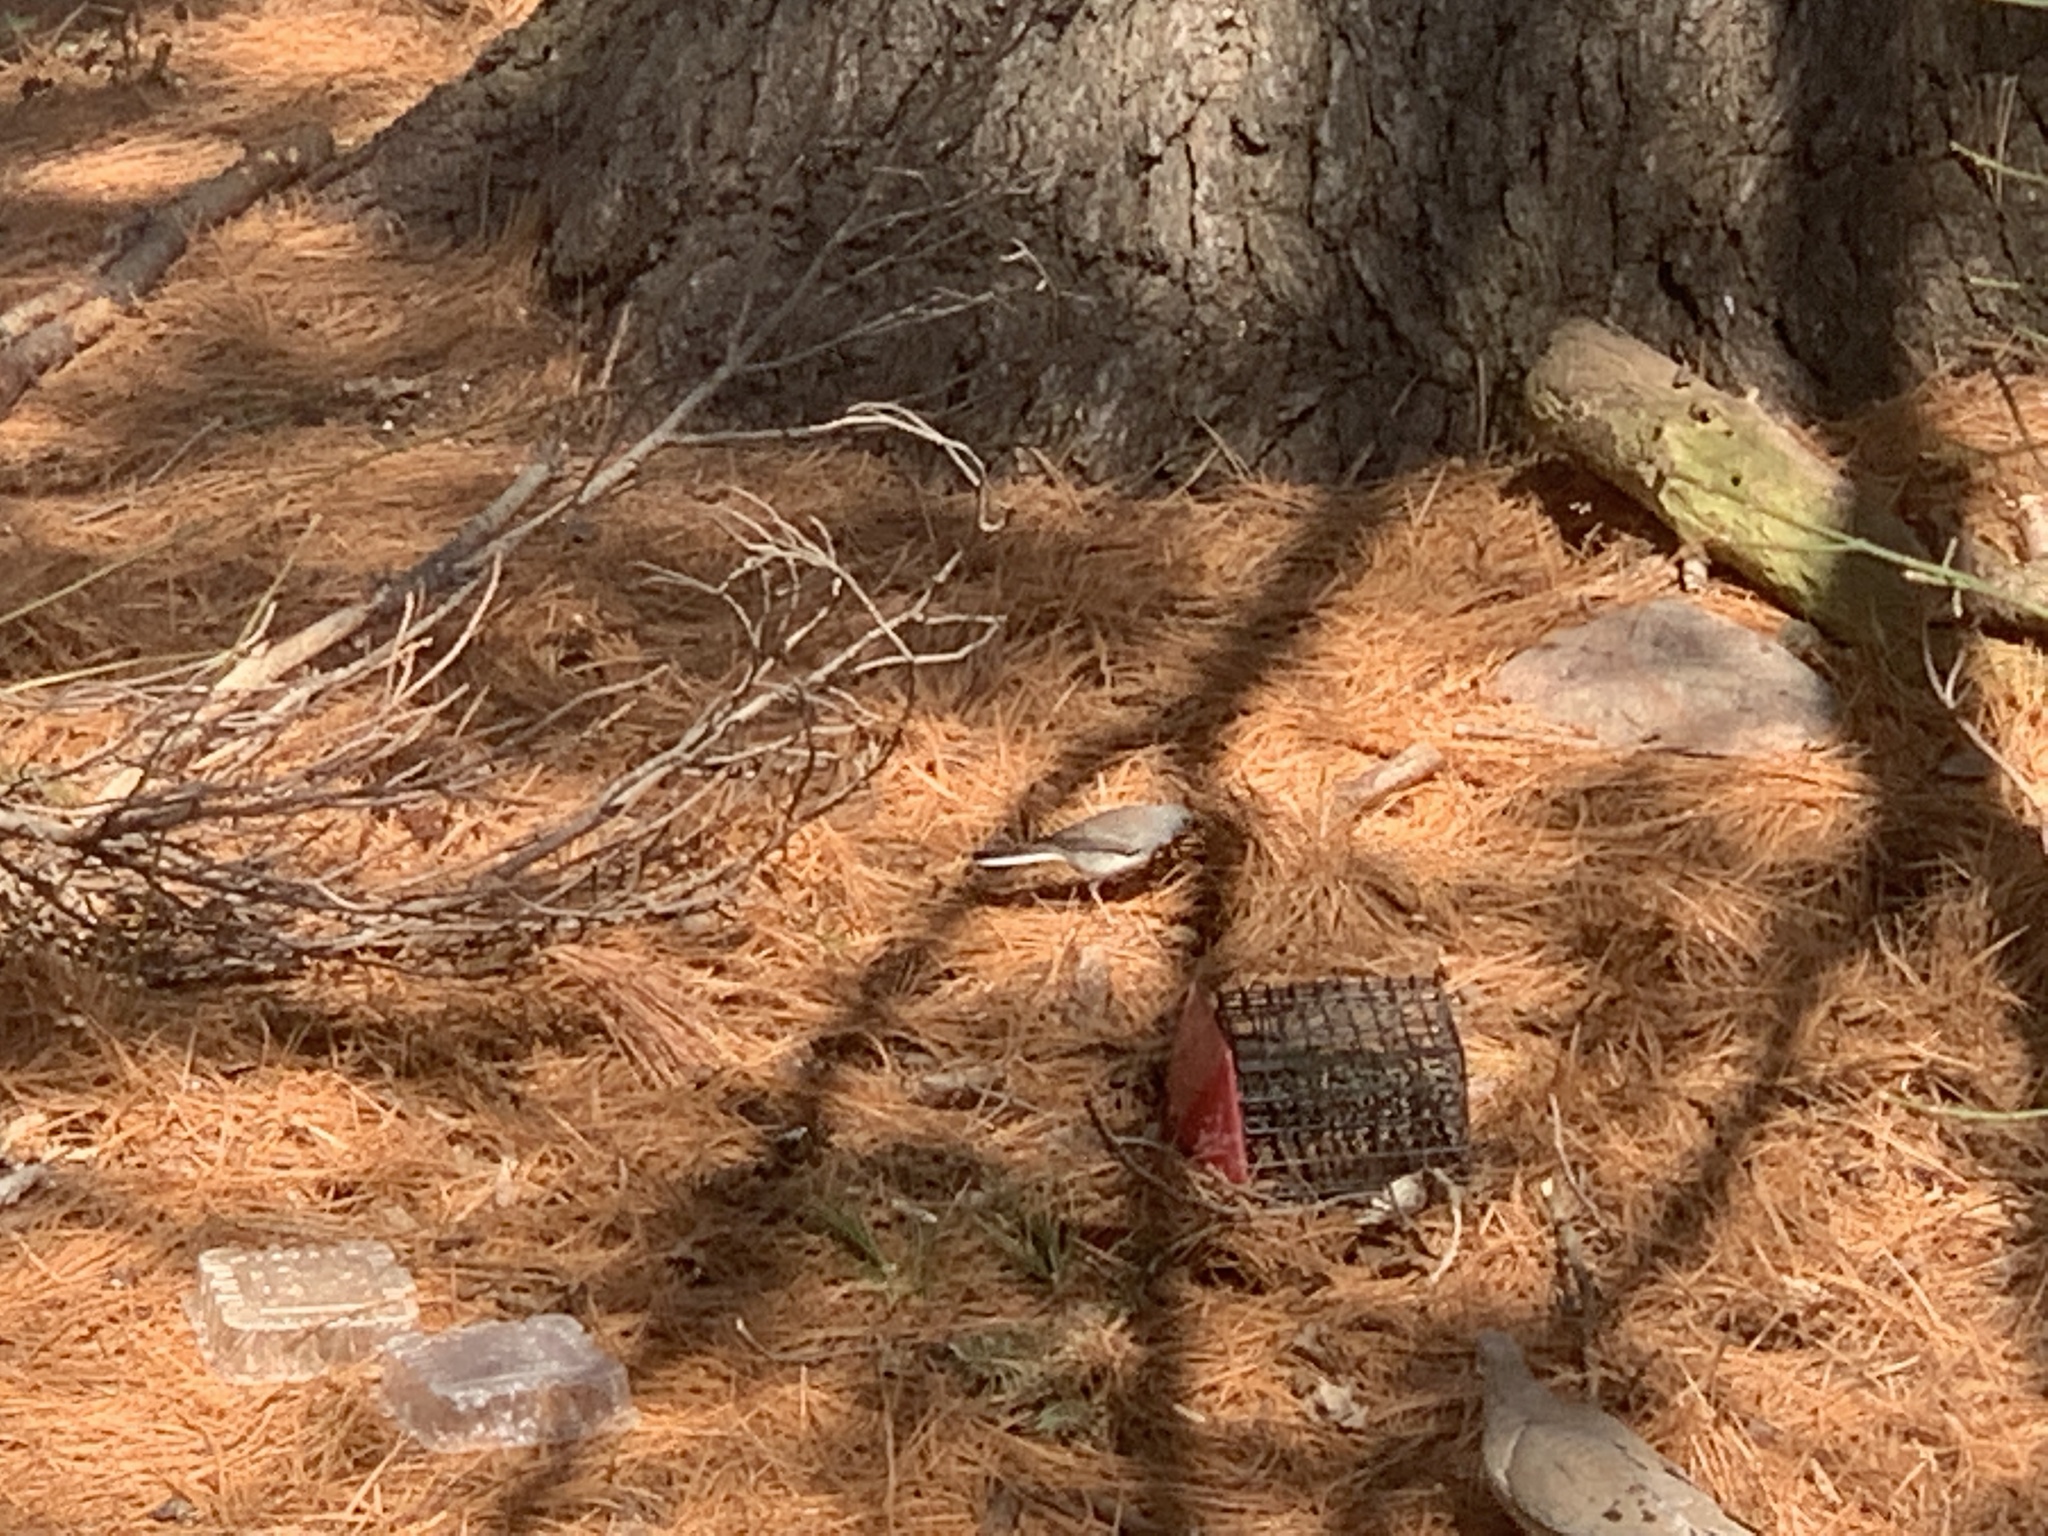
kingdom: Animalia
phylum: Chordata
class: Aves
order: Passeriformes
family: Passerellidae
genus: Junco
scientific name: Junco hyemalis
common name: Dark-eyed junco
